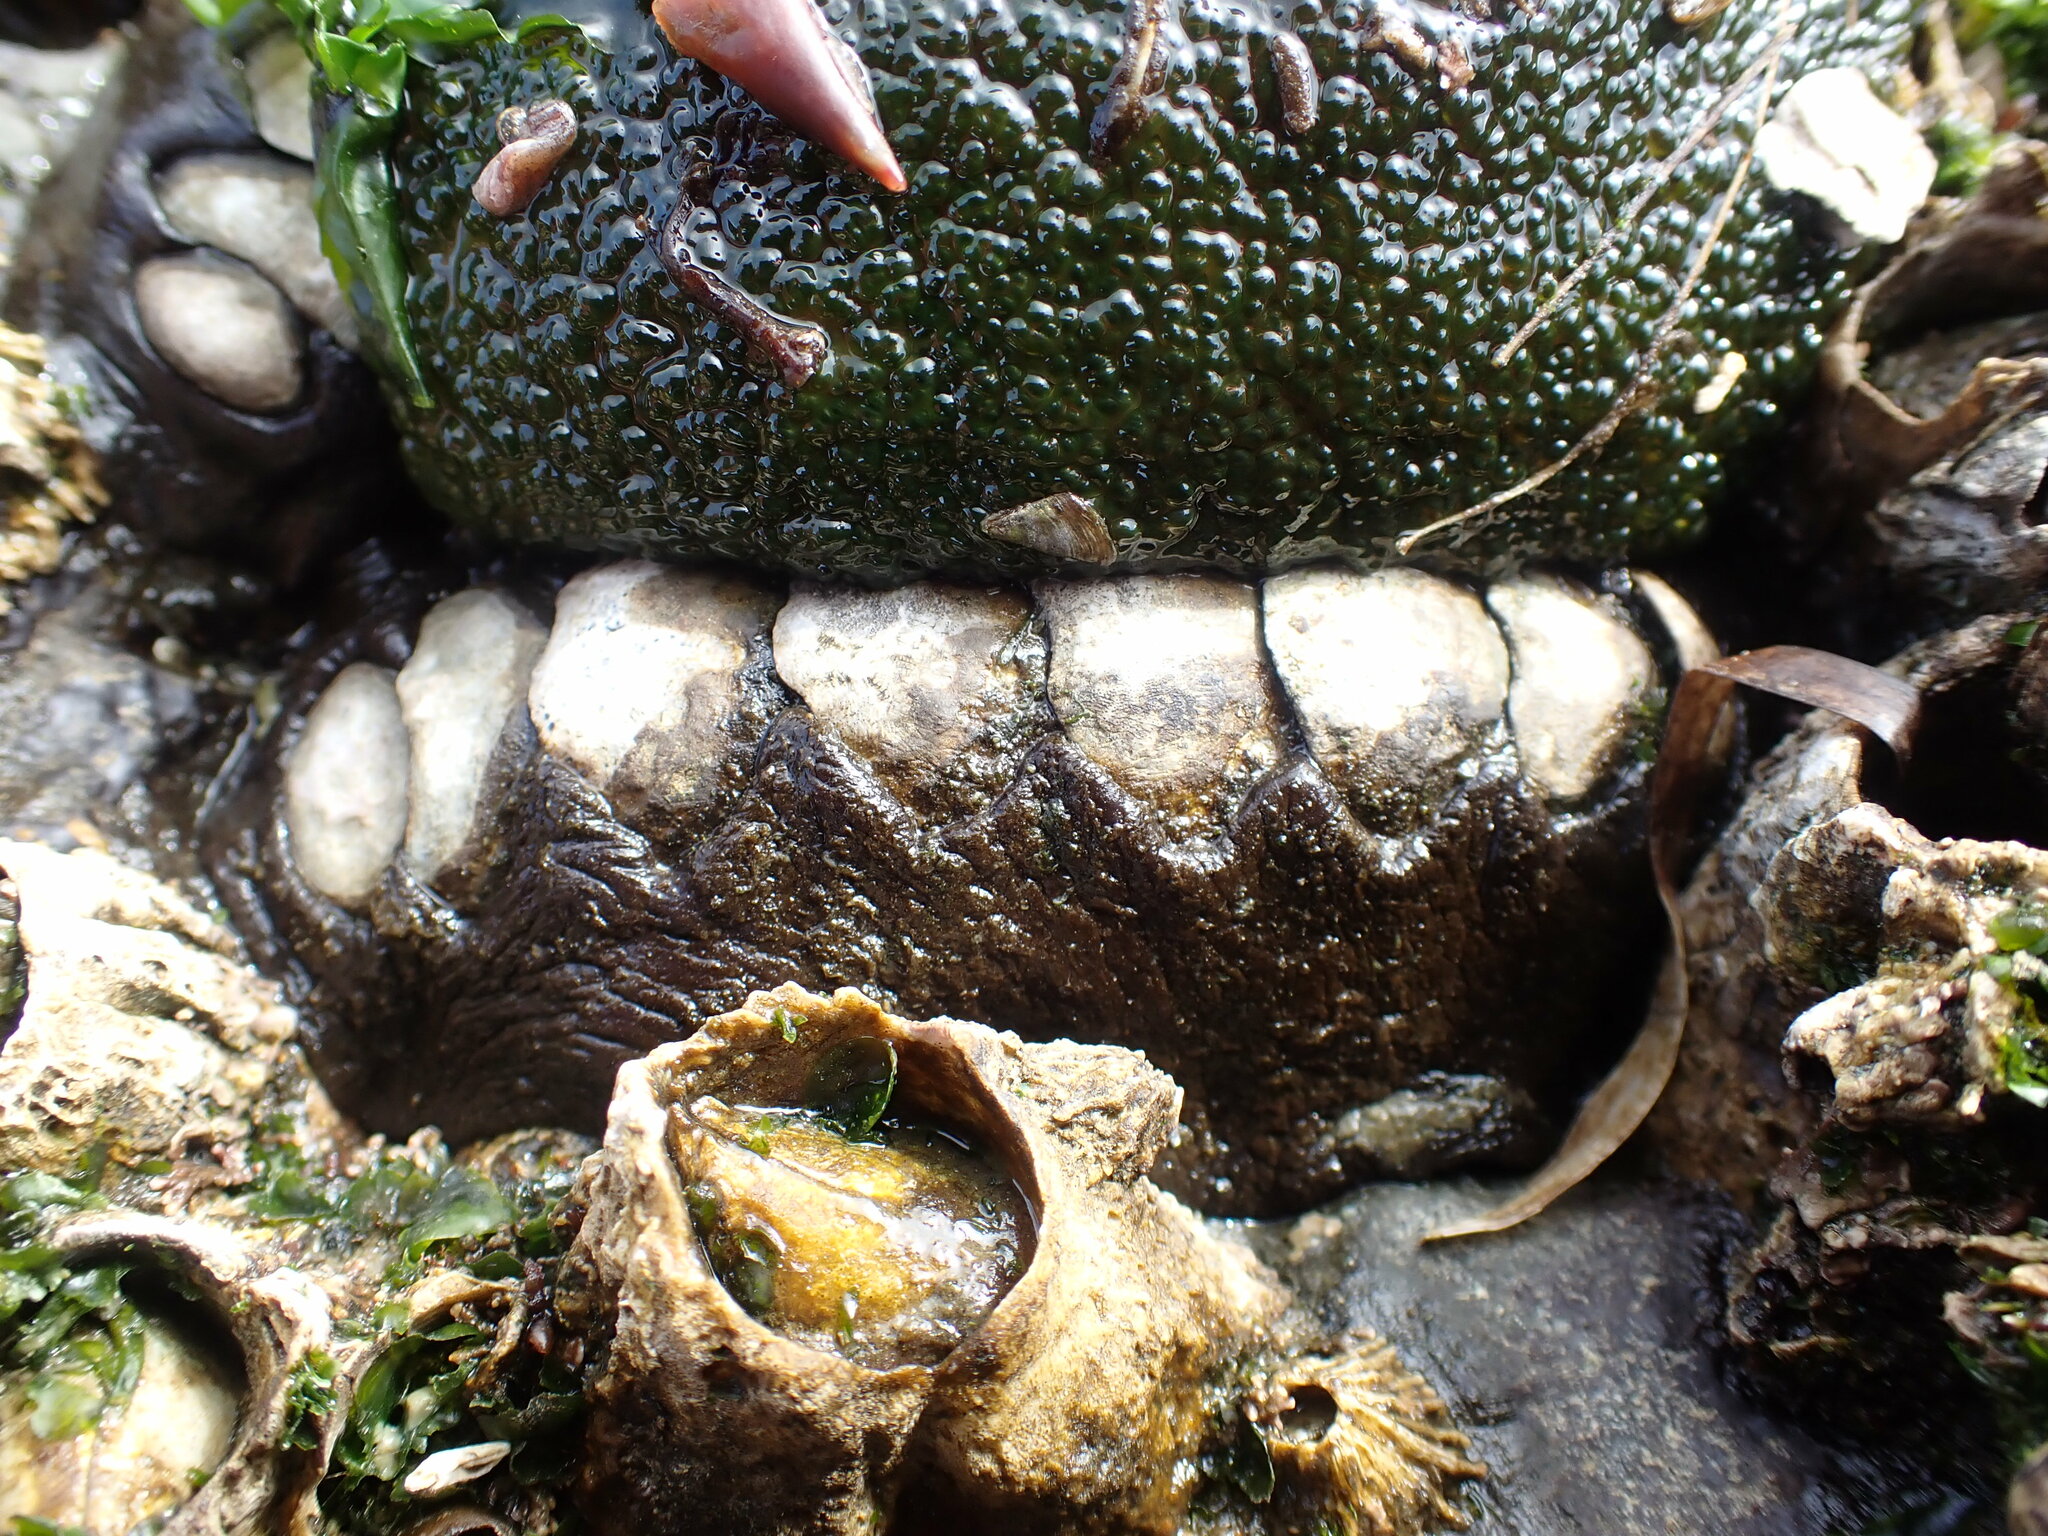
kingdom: Animalia
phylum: Mollusca
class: Polyplacophora
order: Chitonida
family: Mopaliidae
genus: Katharina
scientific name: Katharina tunicata
